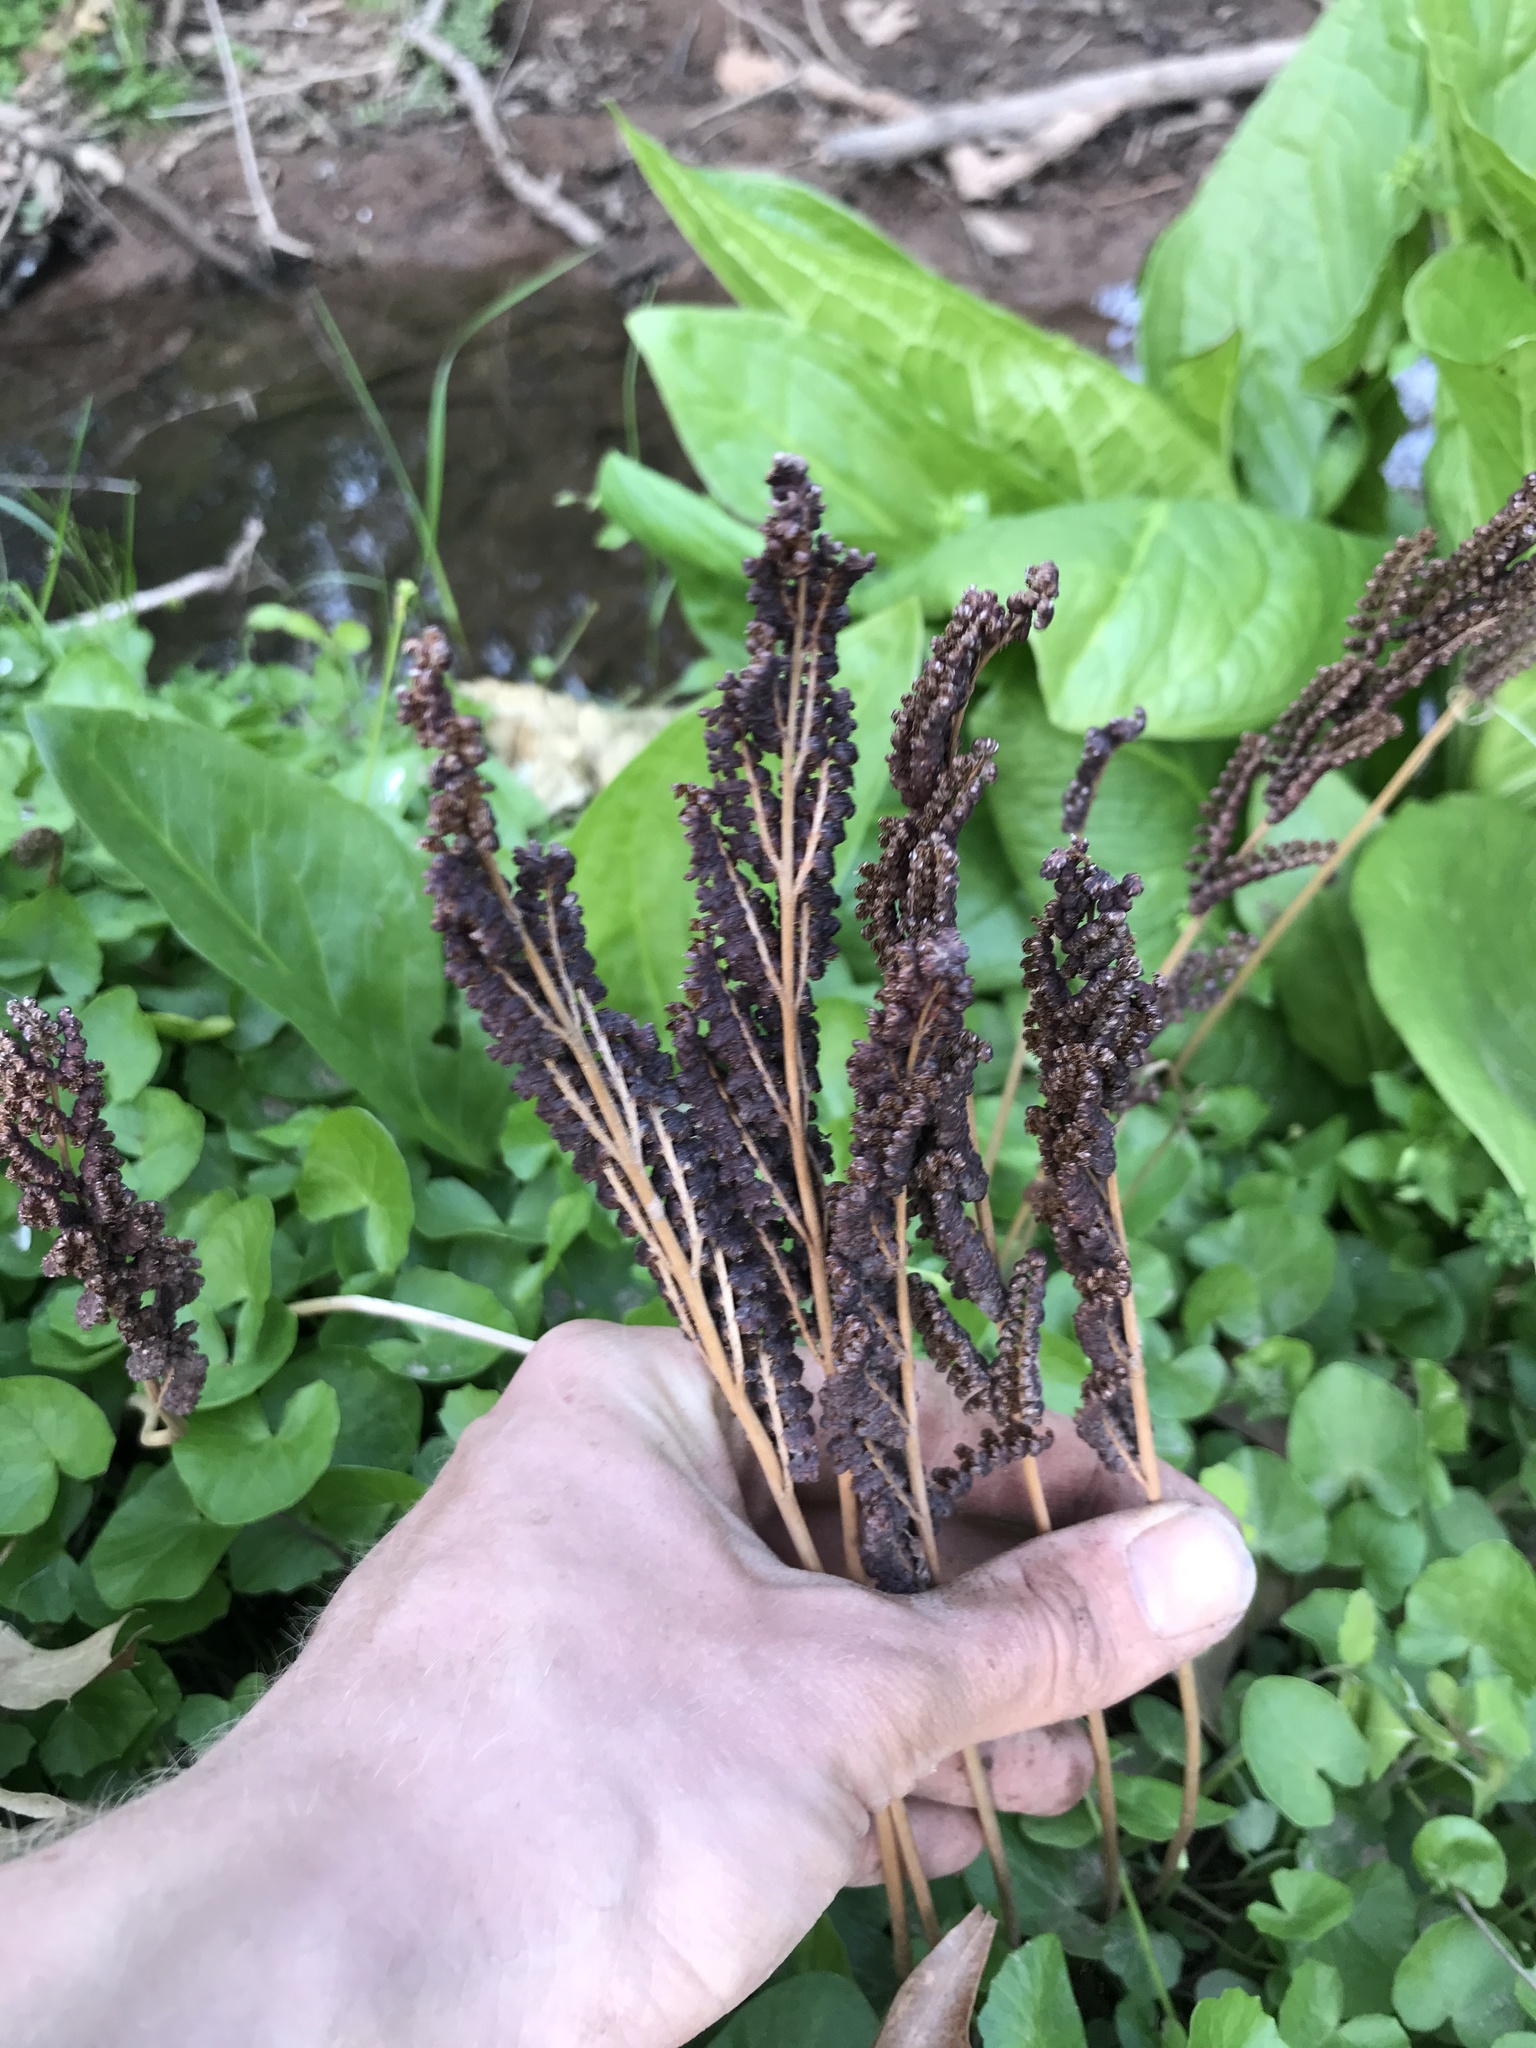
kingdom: Plantae
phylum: Tracheophyta
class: Polypodiopsida
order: Polypodiales
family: Onocleaceae
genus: Onoclea
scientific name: Onoclea sensibilis
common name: Sensitive fern
